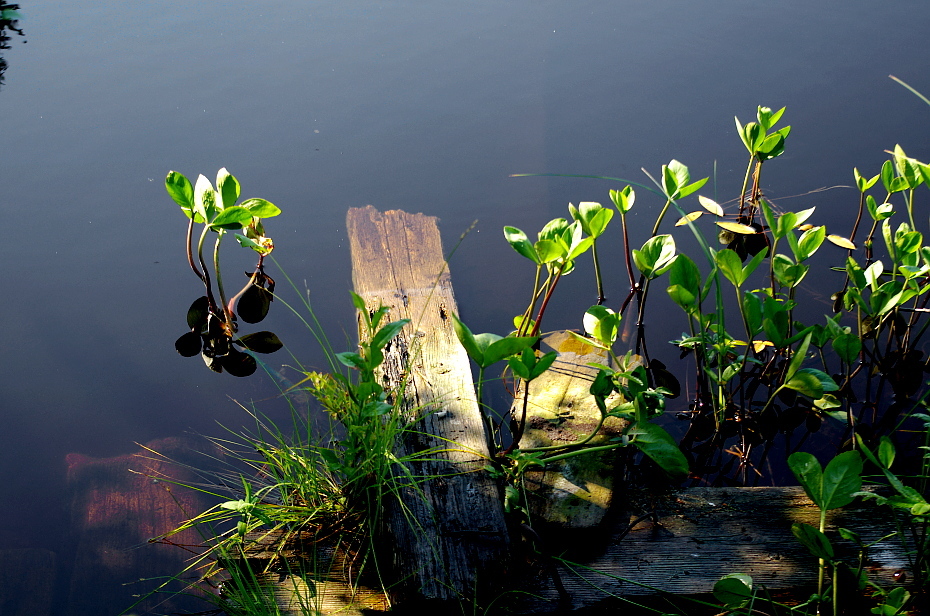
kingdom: Plantae
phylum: Tracheophyta
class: Magnoliopsida
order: Asterales
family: Menyanthaceae
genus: Menyanthes
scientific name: Menyanthes trifoliata
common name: Bogbean
